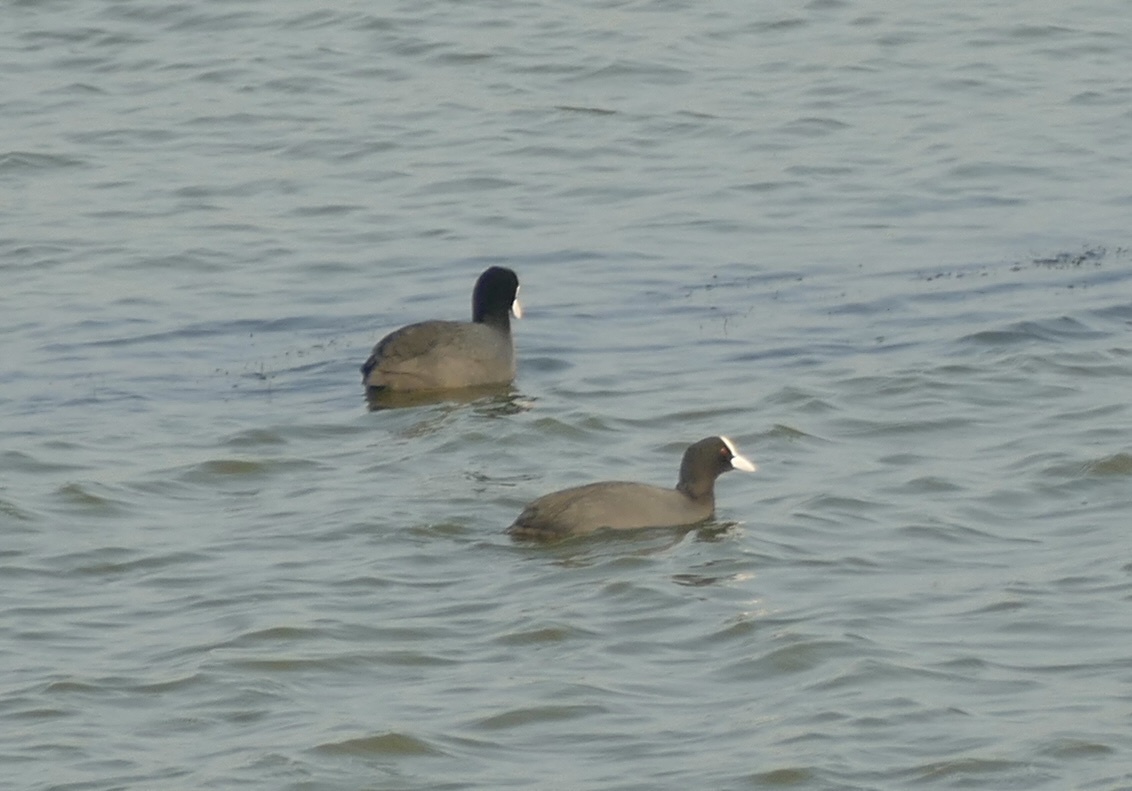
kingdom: Animalia
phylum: Chordata
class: Aves
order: Gruiformes
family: Rallidae
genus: Fulica
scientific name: Fulica atra
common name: Eurasian coot
